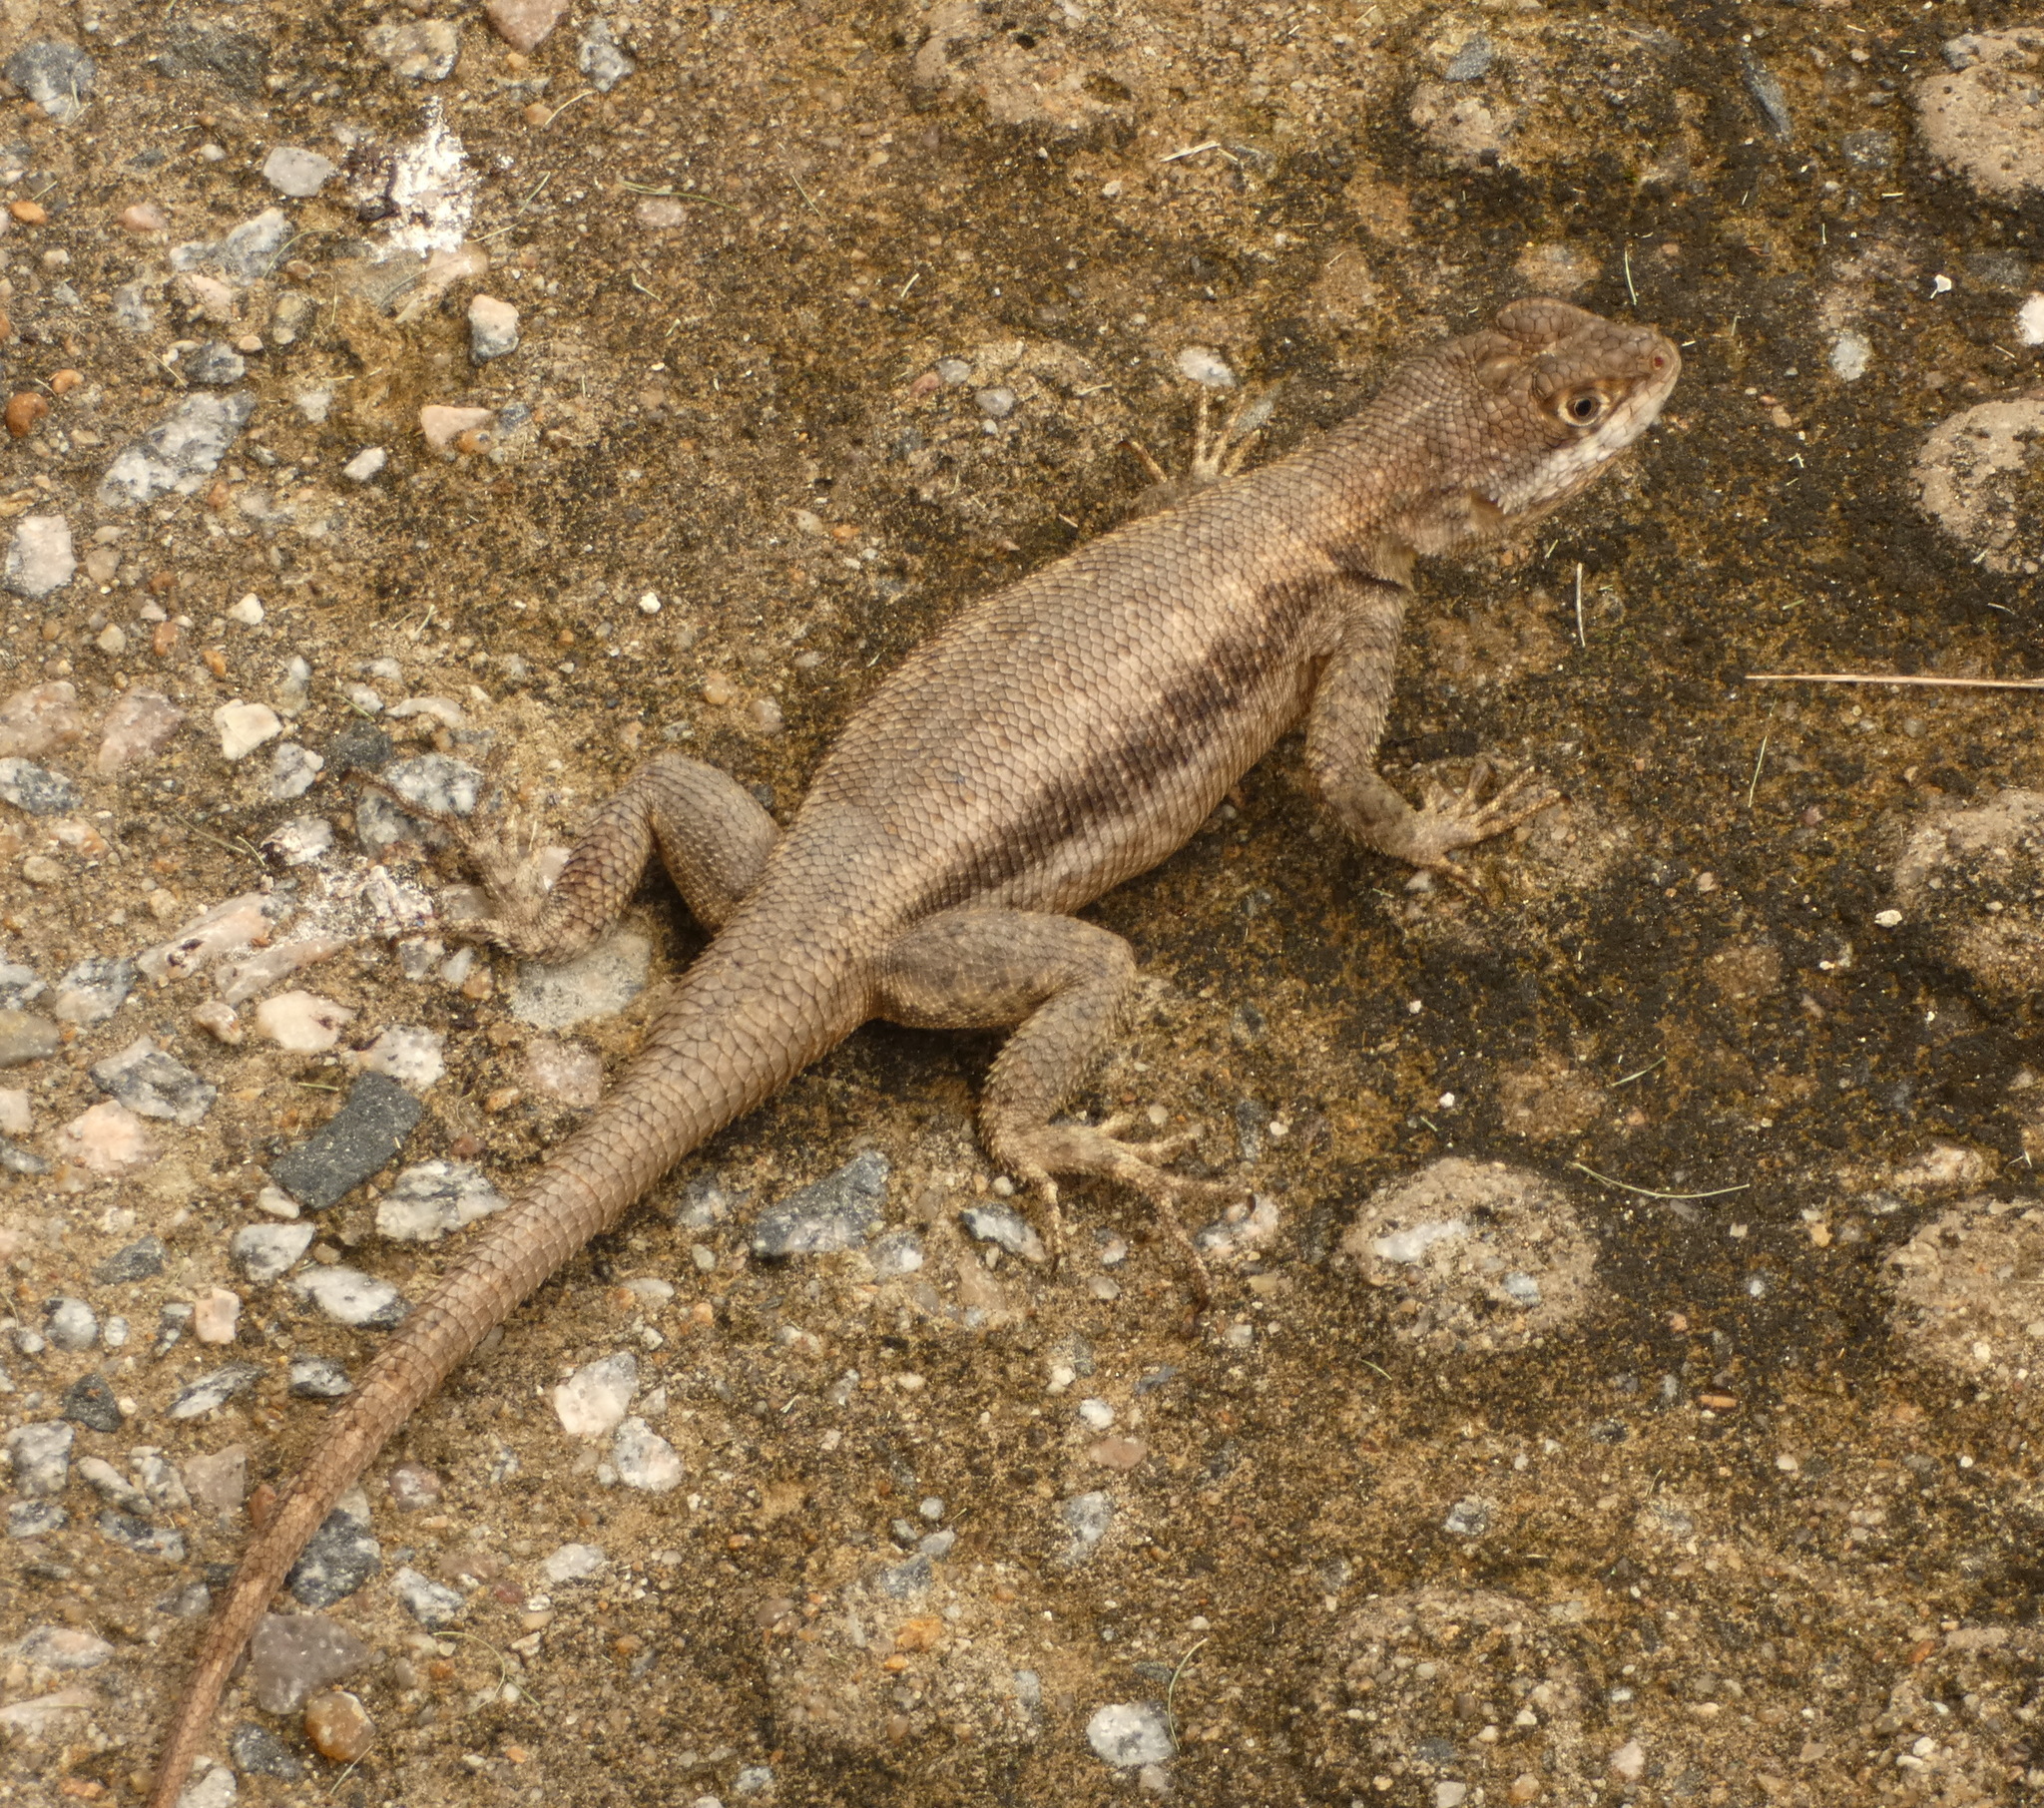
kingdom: Animalia
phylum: Chordata
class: Squamata
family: Tropiduridae
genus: Tropidurus
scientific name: Tropidurus hispidus
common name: Peters' lava lizard
